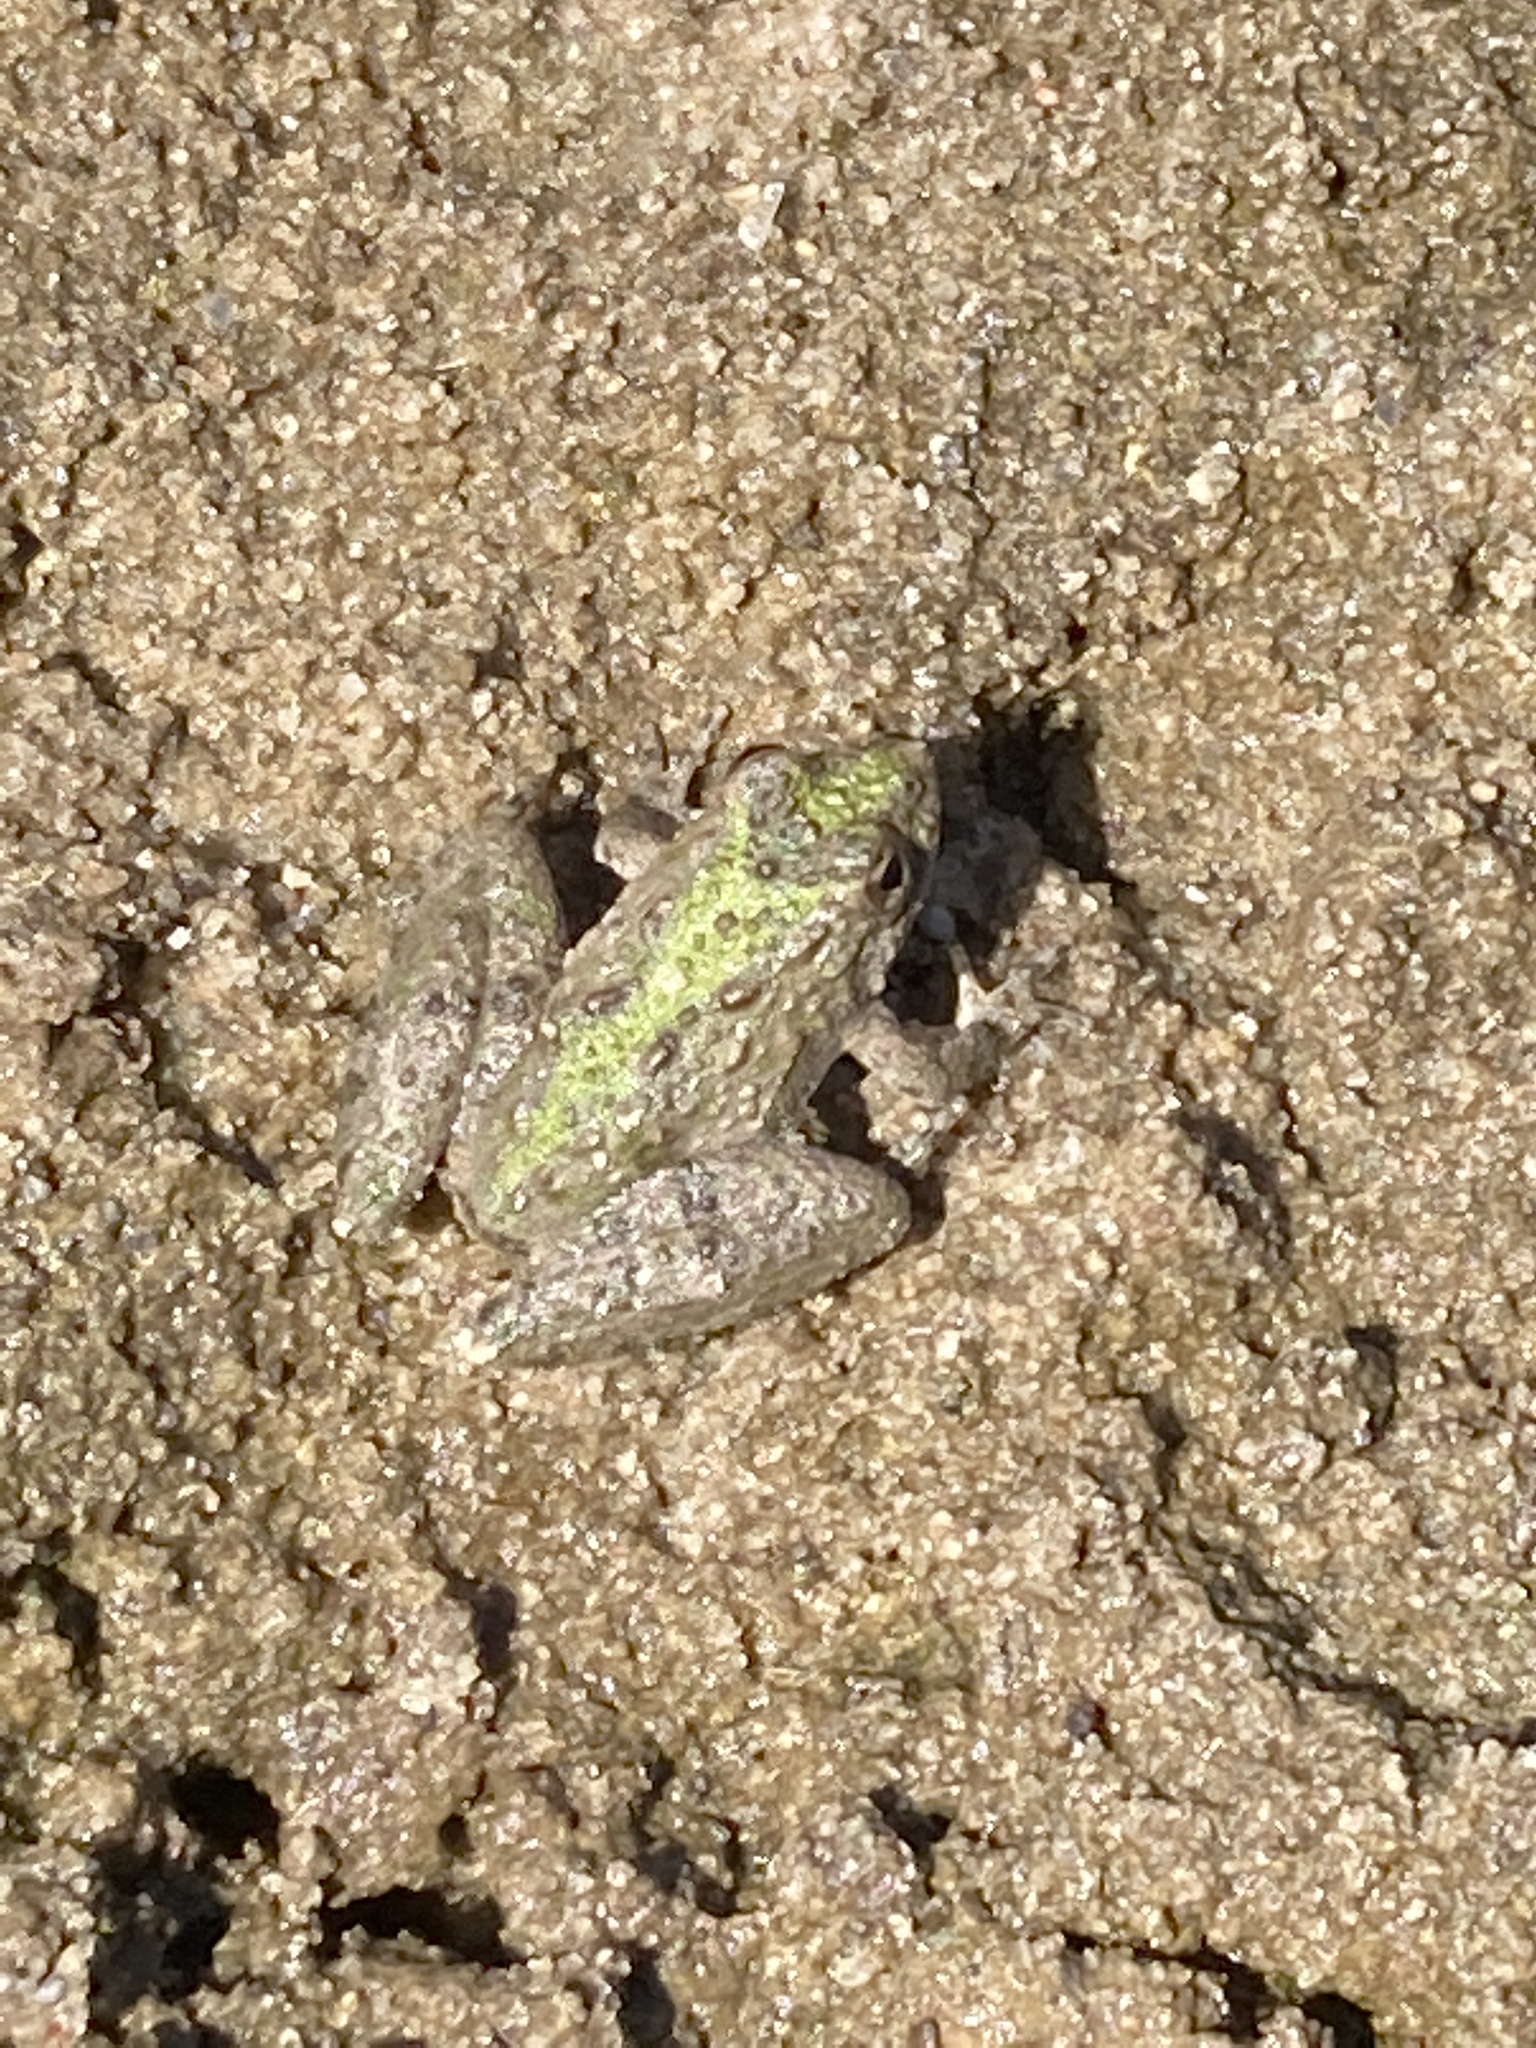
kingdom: Animalia
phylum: Chordata
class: Amphibia
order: Anura
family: Hylidae
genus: Acris
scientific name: Acris blanchardi
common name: Blanchard's cricket frog
